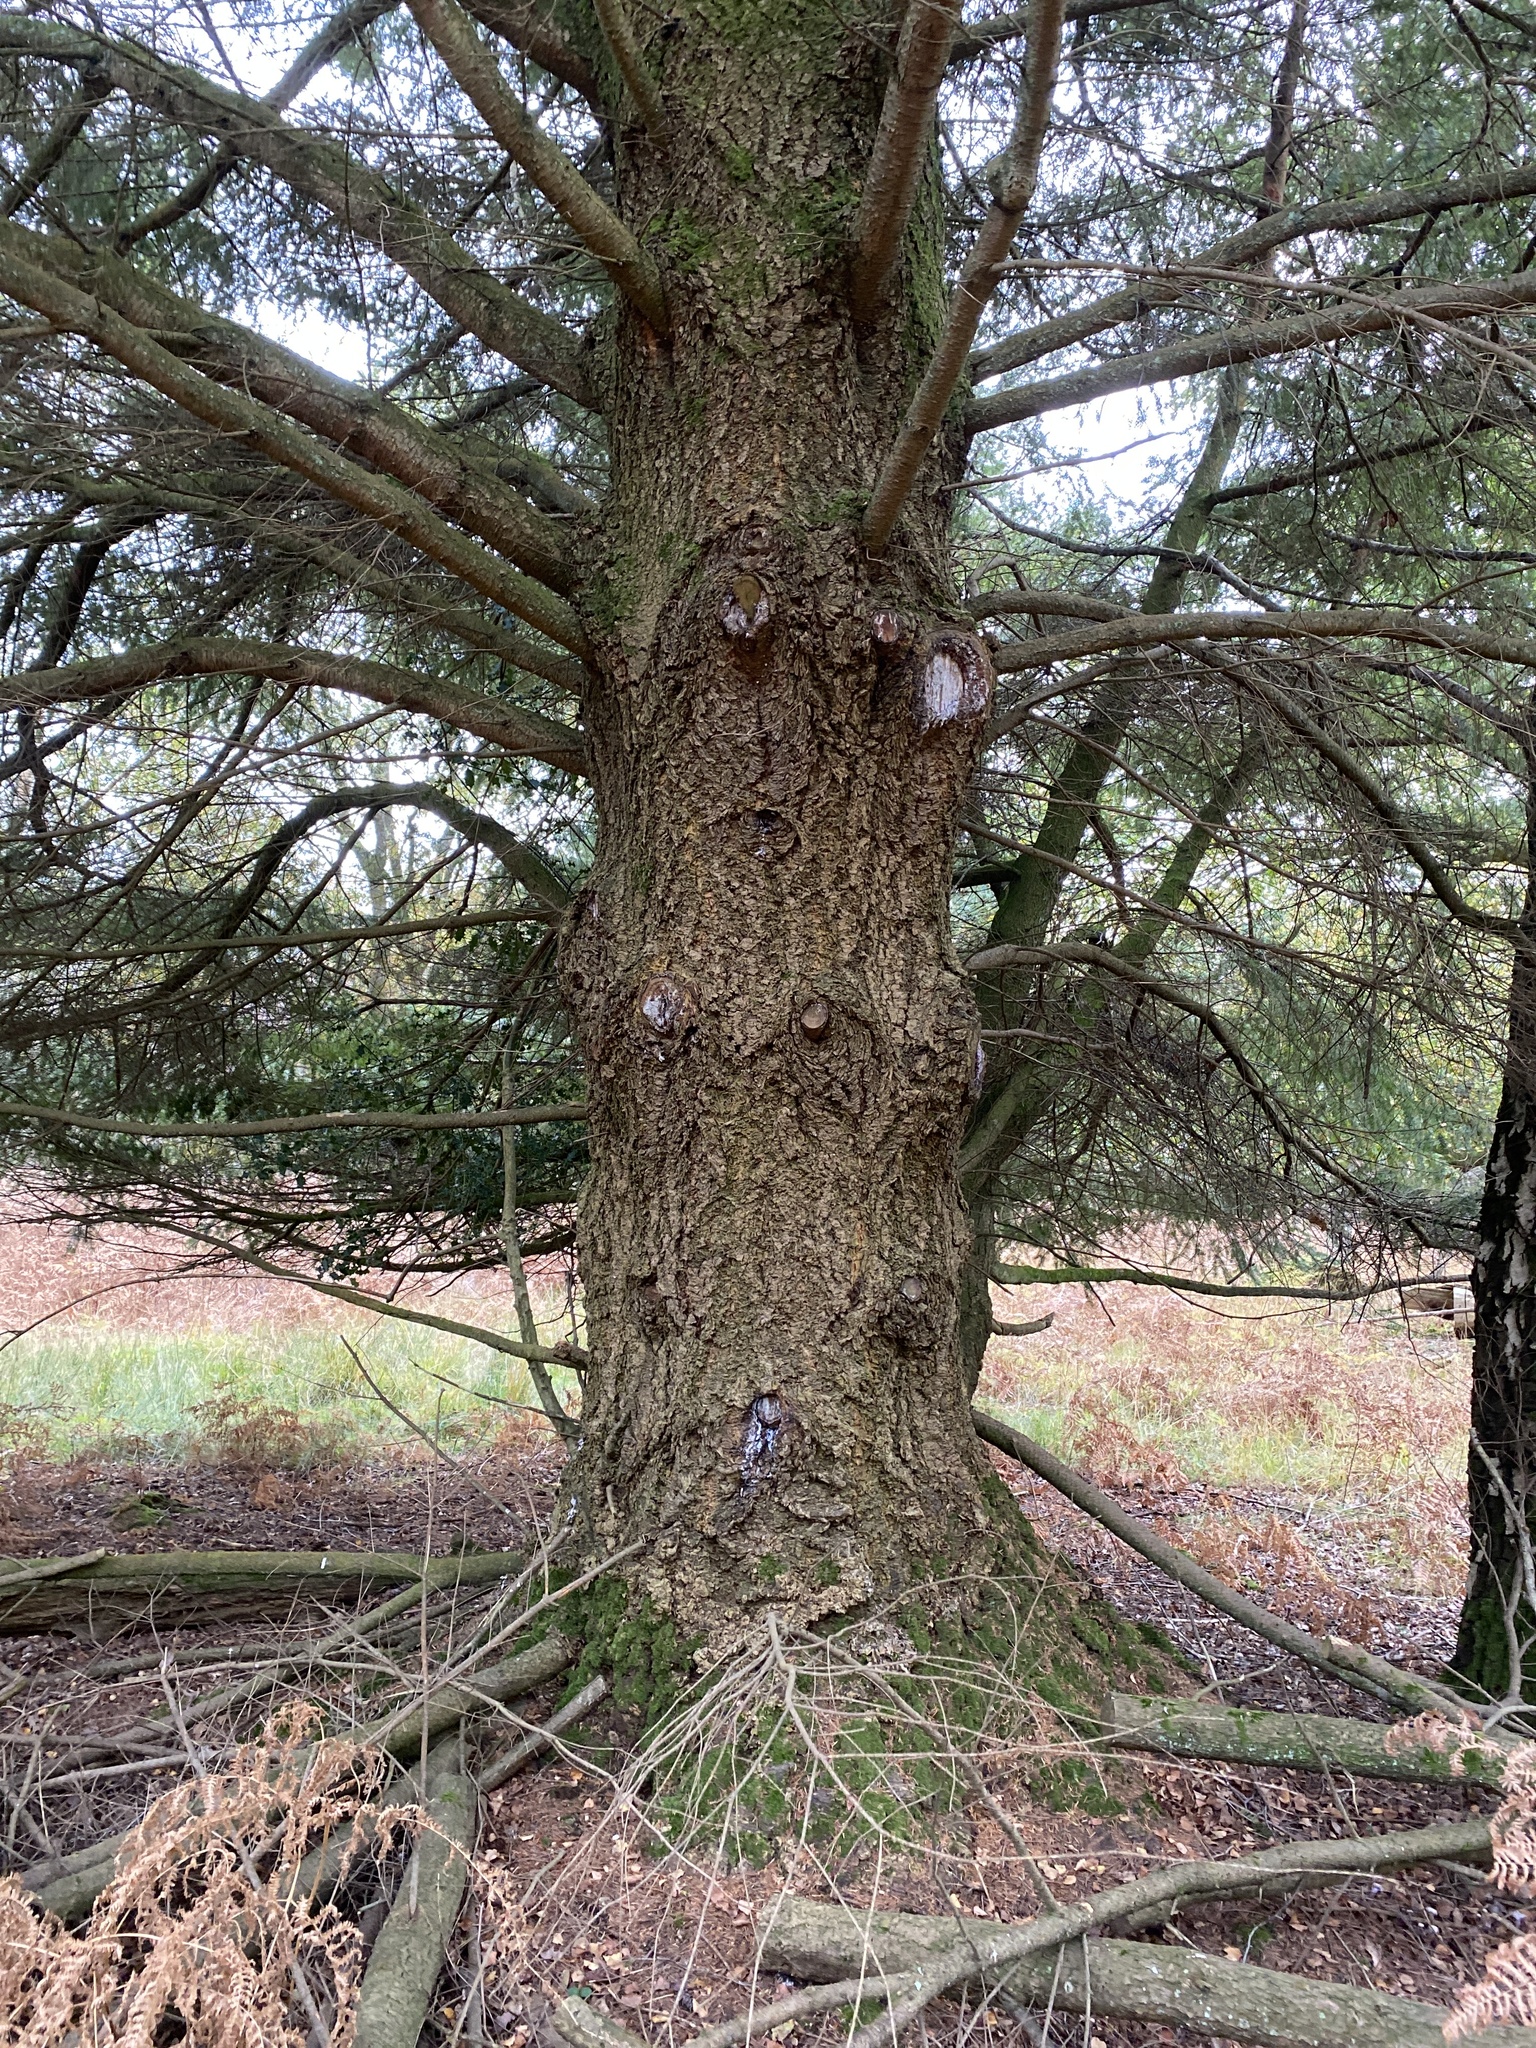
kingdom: Plantae
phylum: Tracheophyta
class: Pinopsida
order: Pinales
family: Pinaceae
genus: Pseudotsuga
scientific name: Pseudotsuga menziesii
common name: Douglas fir
